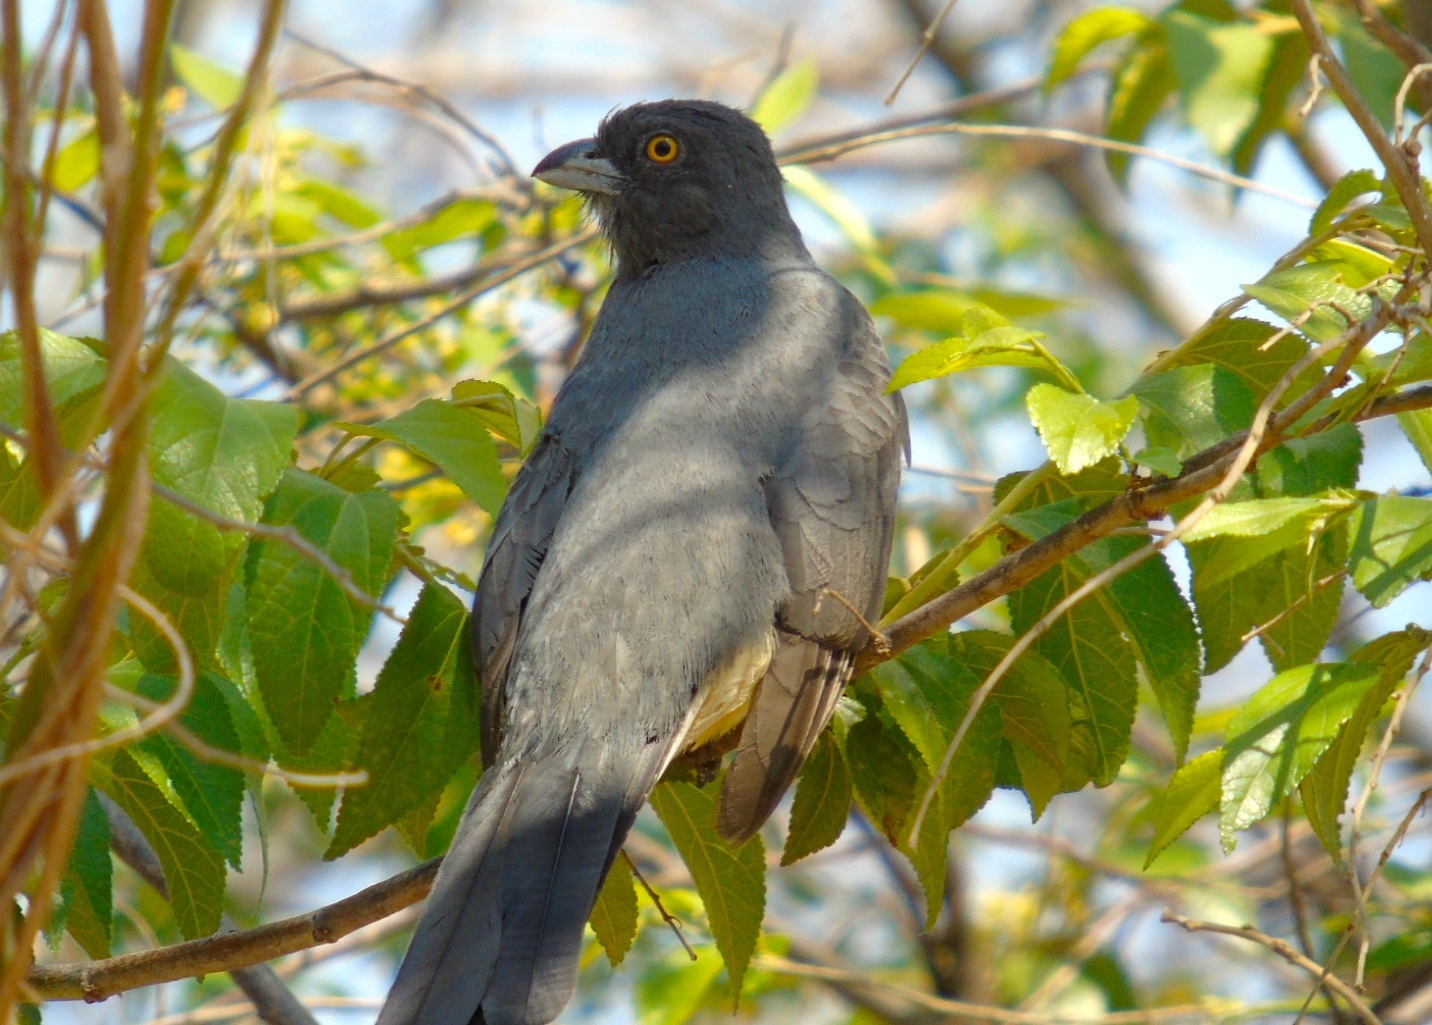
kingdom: Animalia
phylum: Chordata
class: Aves
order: Trogoniformes
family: Trogonidae
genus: Trogon
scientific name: Trogon citreolus
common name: Citreoline trogon
